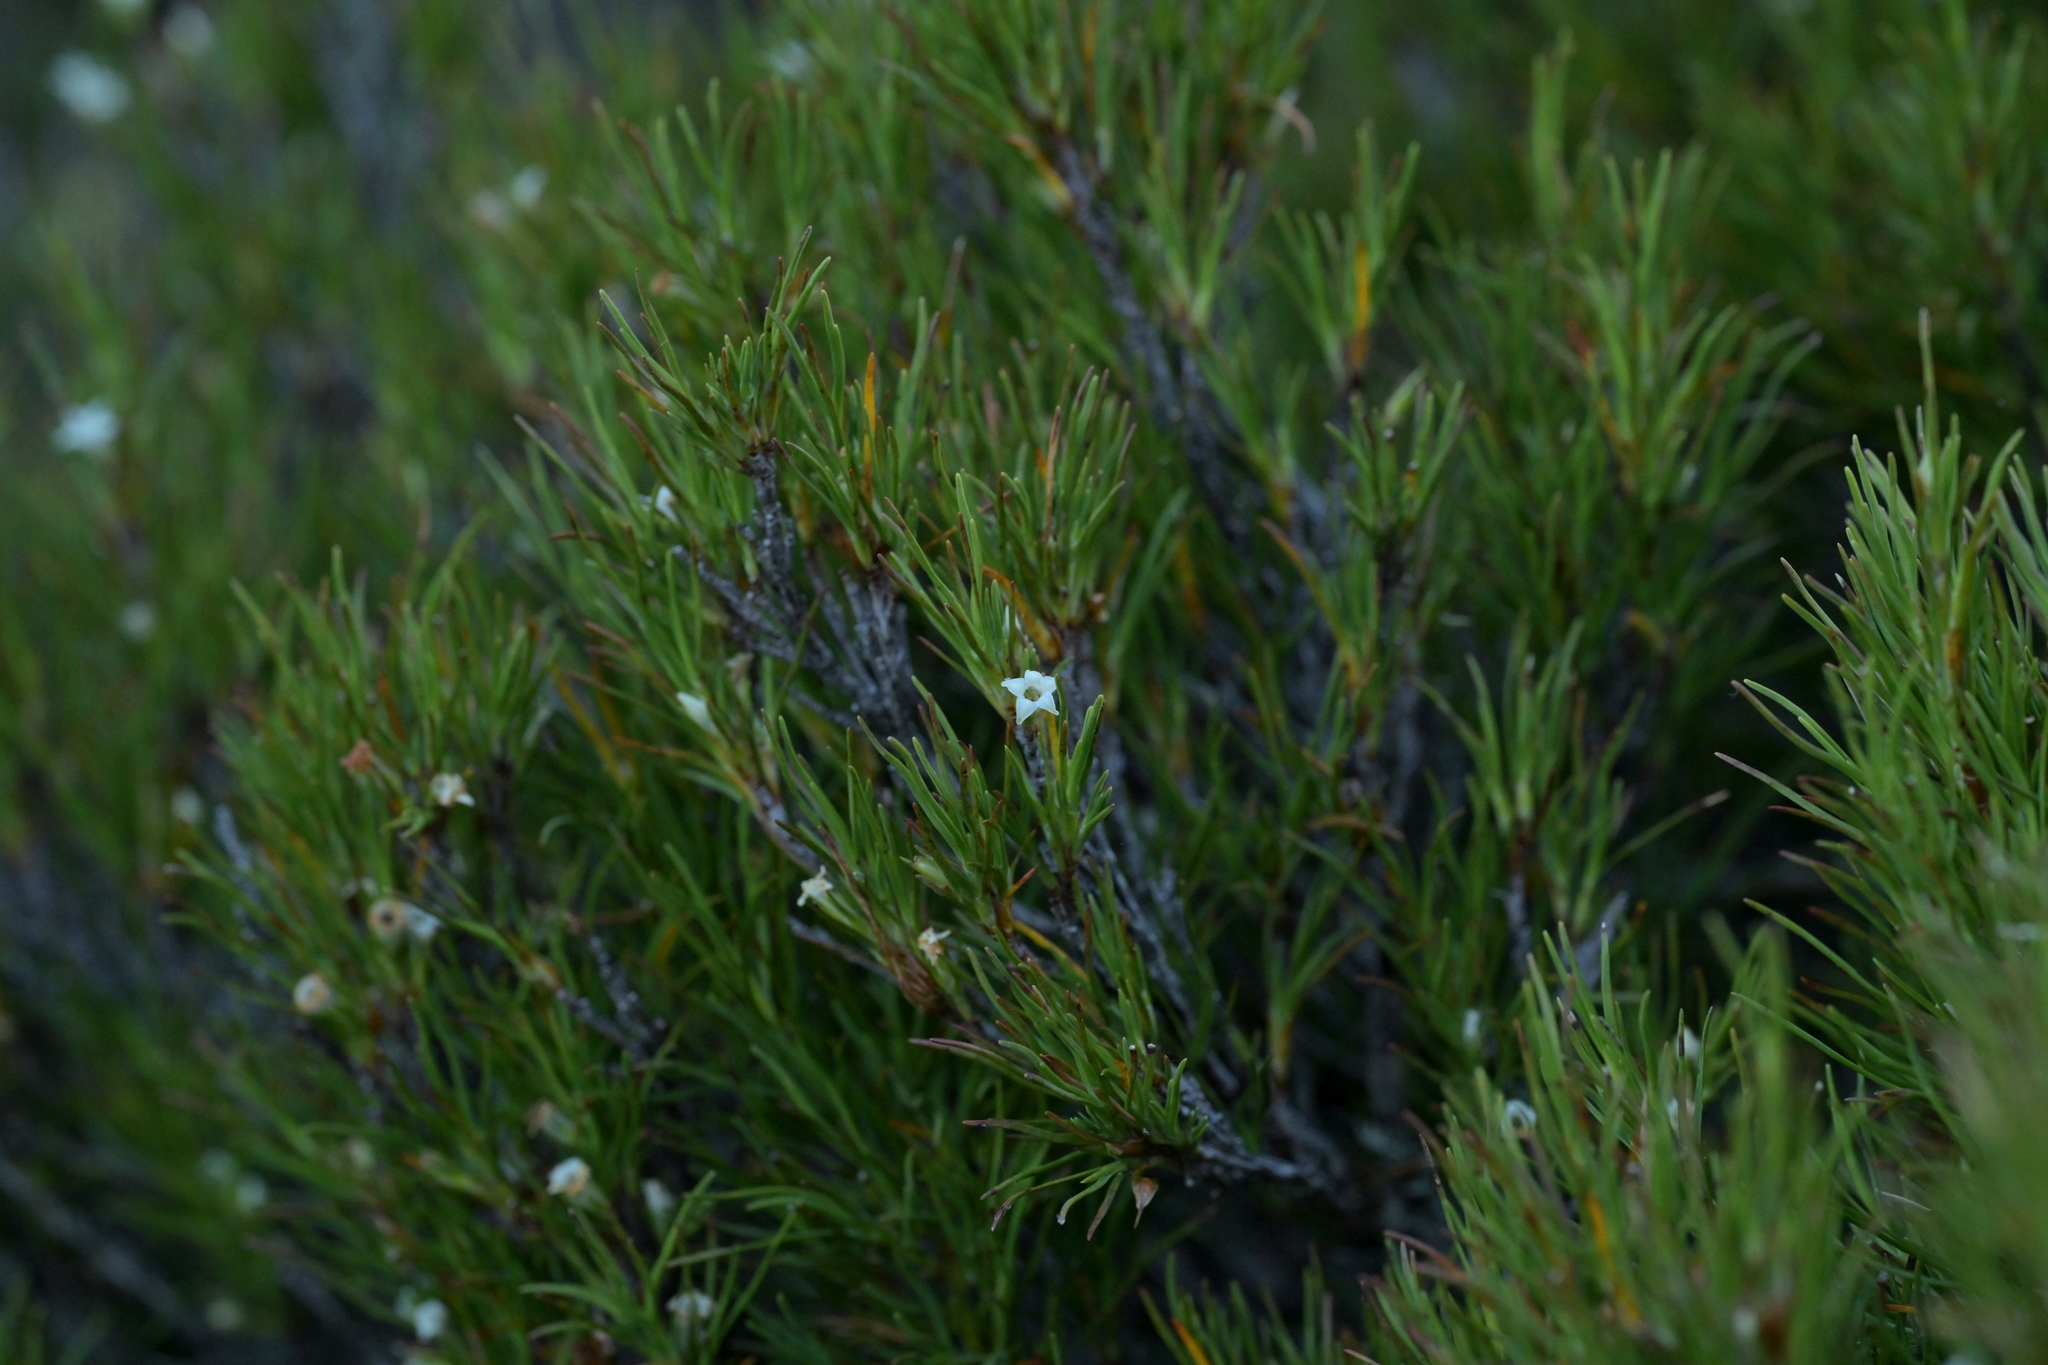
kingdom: Plantae
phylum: Tracheophyta
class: Magnoliopsida
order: Ericales
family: Ericaceae
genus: Dracophyllum
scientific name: Dracophyllum rosmarinifolium
